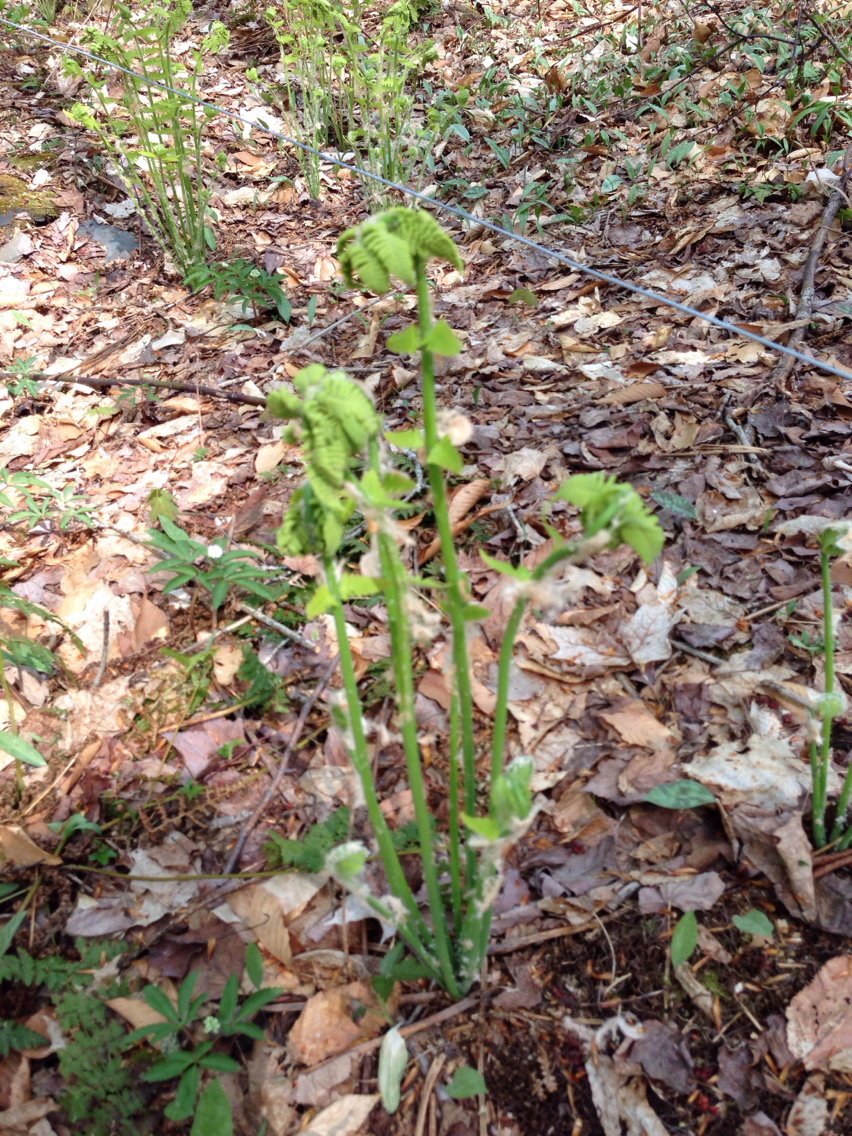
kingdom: Plantae
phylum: Tracheophyta
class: Polypodiopsida
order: Osmundales
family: Osmundaceae
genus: Claytosmunda
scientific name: Claytosmunda claytoniana
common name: Clayton's fern
